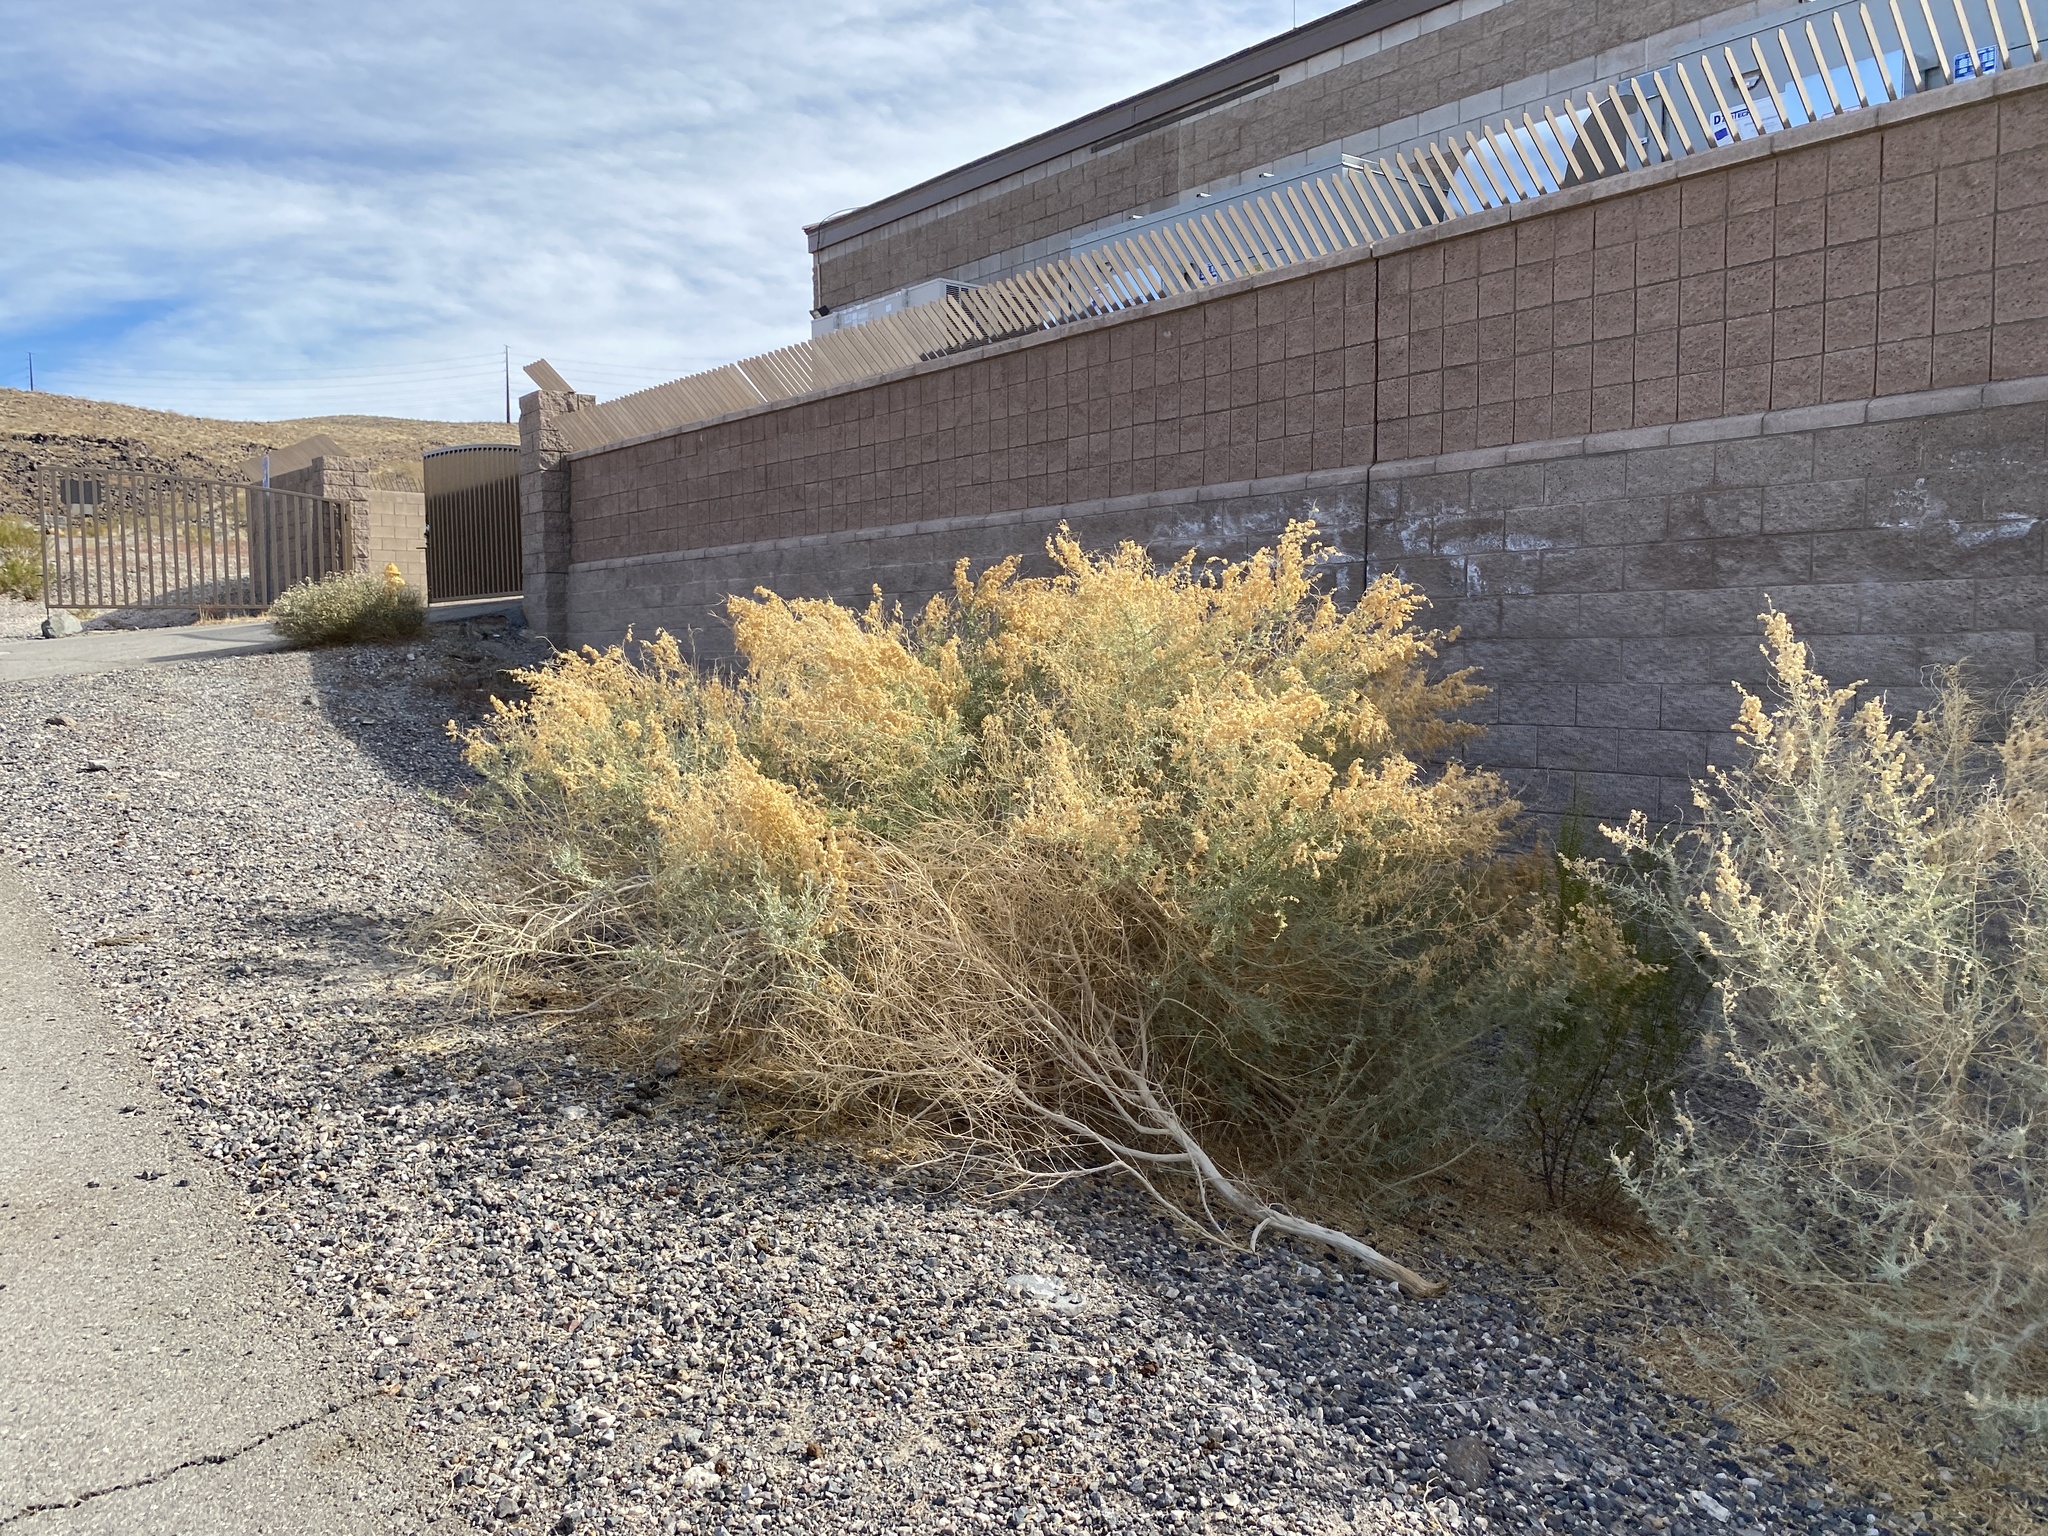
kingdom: Plantae
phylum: Tracheophyta
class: Magnoliopsida
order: Caryophyllales
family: Amaranthaceae
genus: Atriplex
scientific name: Atriplex canescens
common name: Four-wing saltbush
